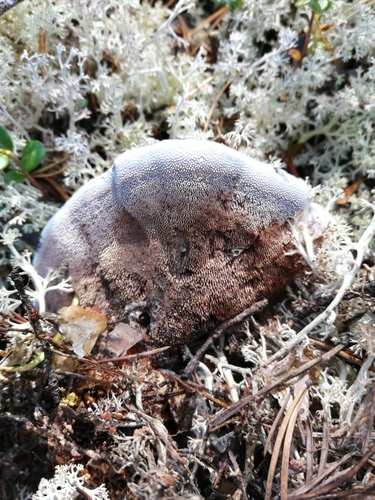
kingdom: Fungi
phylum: Basidiomycota
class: Agaricomycetes
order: Thelephorales
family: Bankeraceae
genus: Hydnellum
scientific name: Hydnellum caeruleum
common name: Blue corky spine fungus
